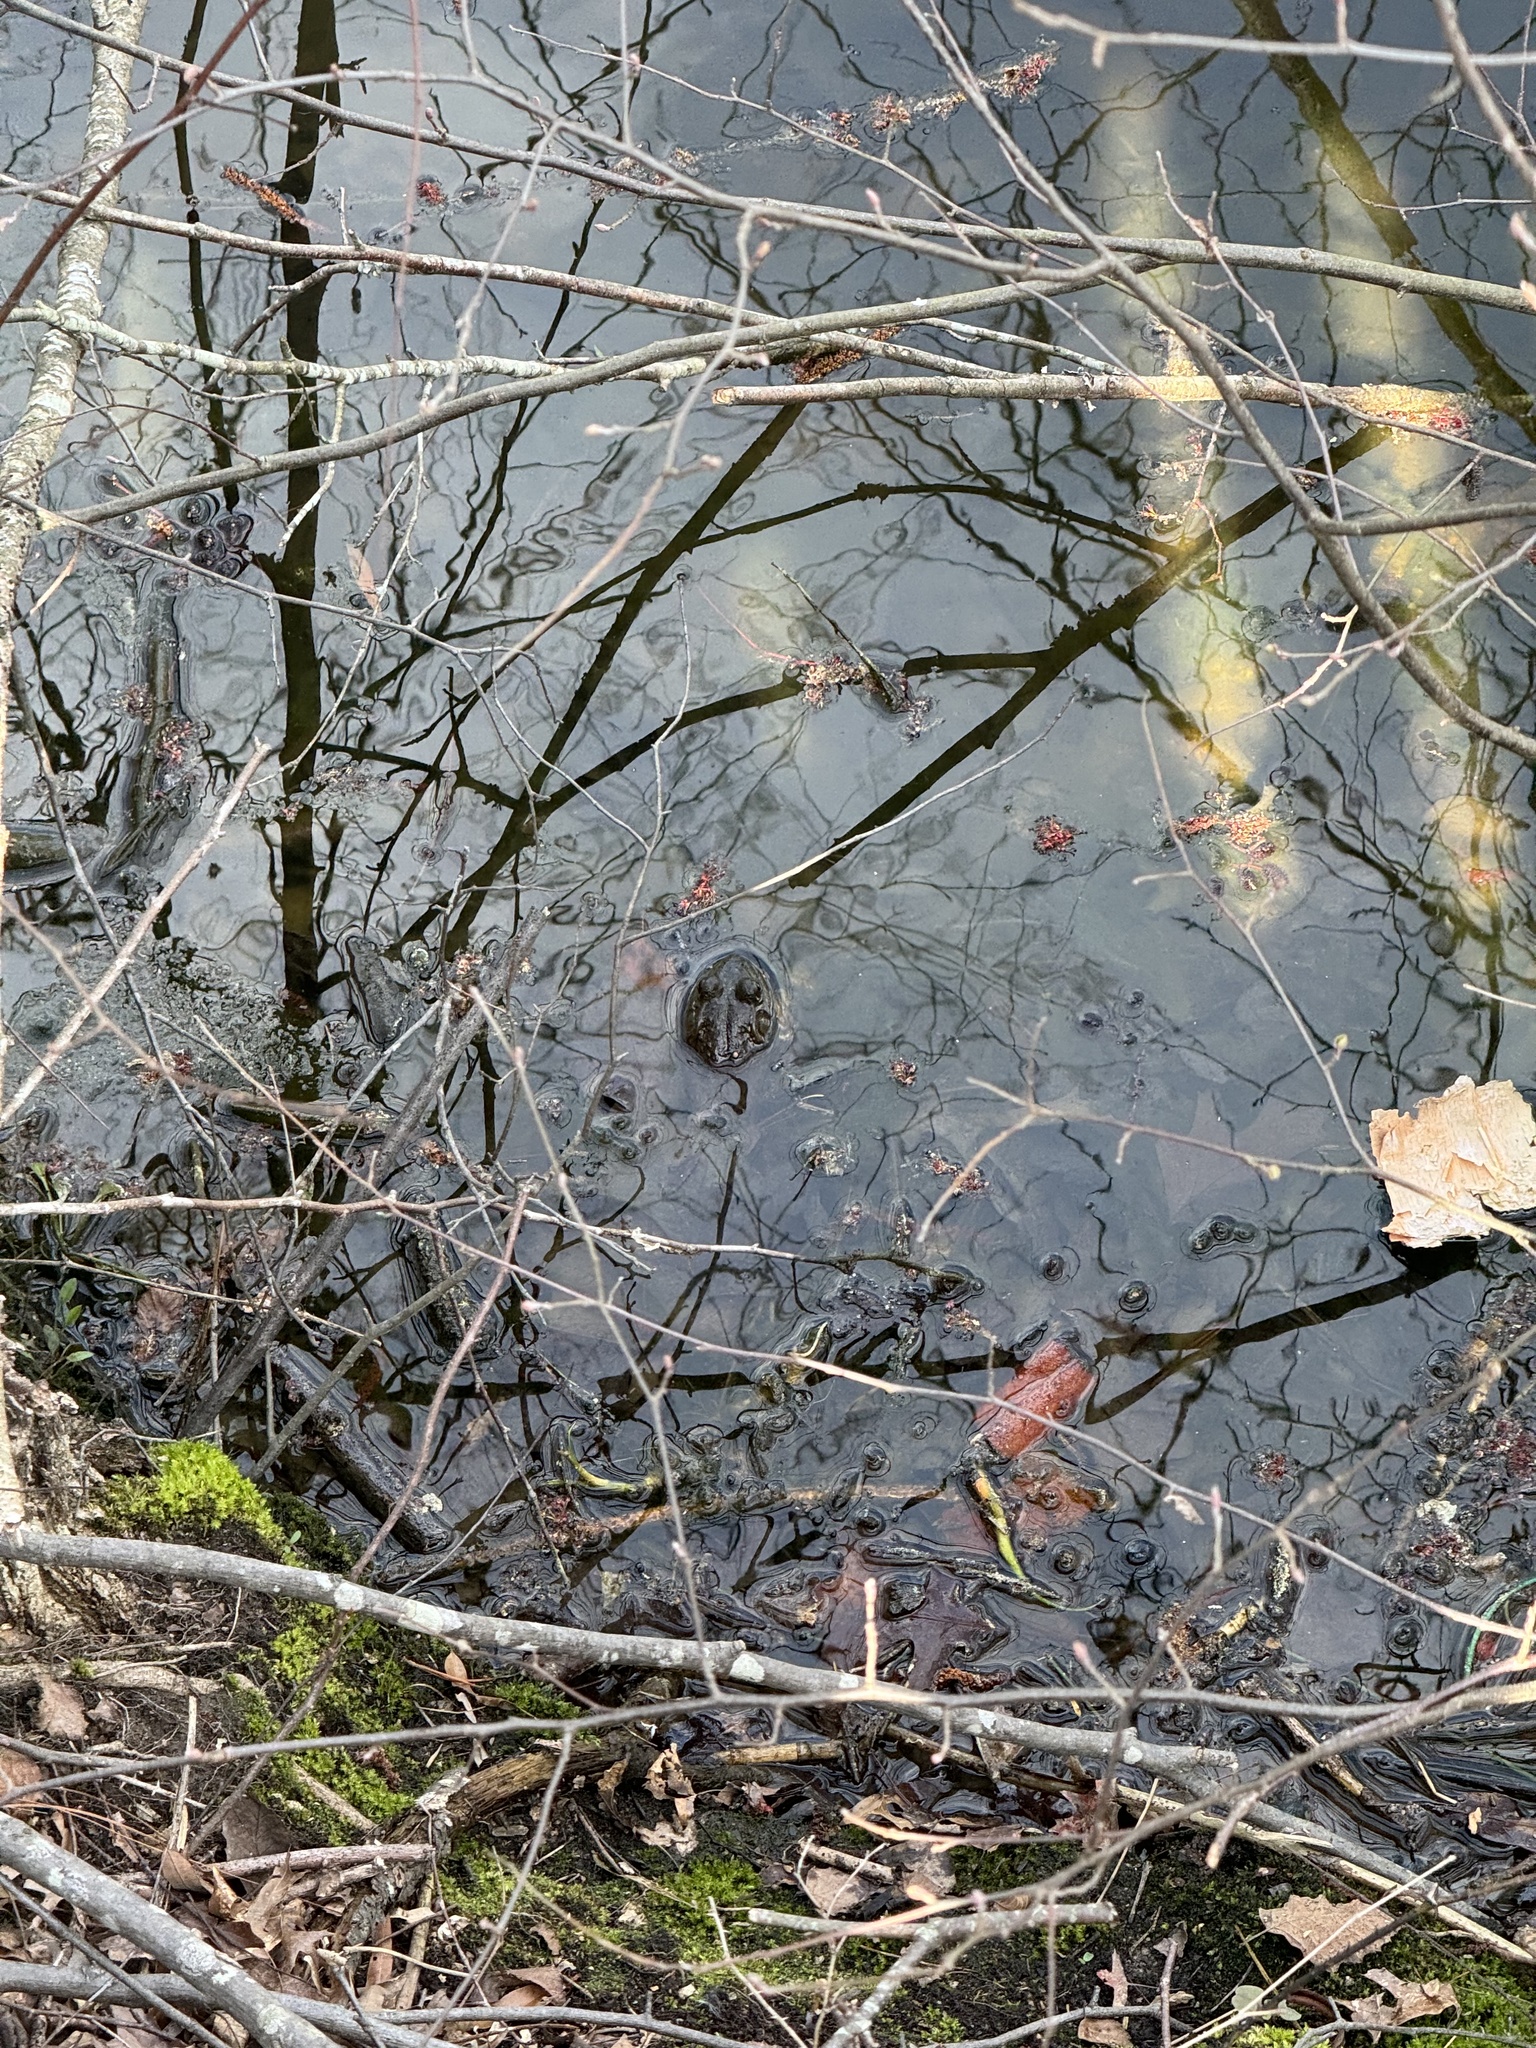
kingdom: Animalia
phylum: Chordata
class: Amphibia
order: Anura
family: Ranidae
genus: Lithobates
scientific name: Lithobates catesbeianus
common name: American bullfrog
